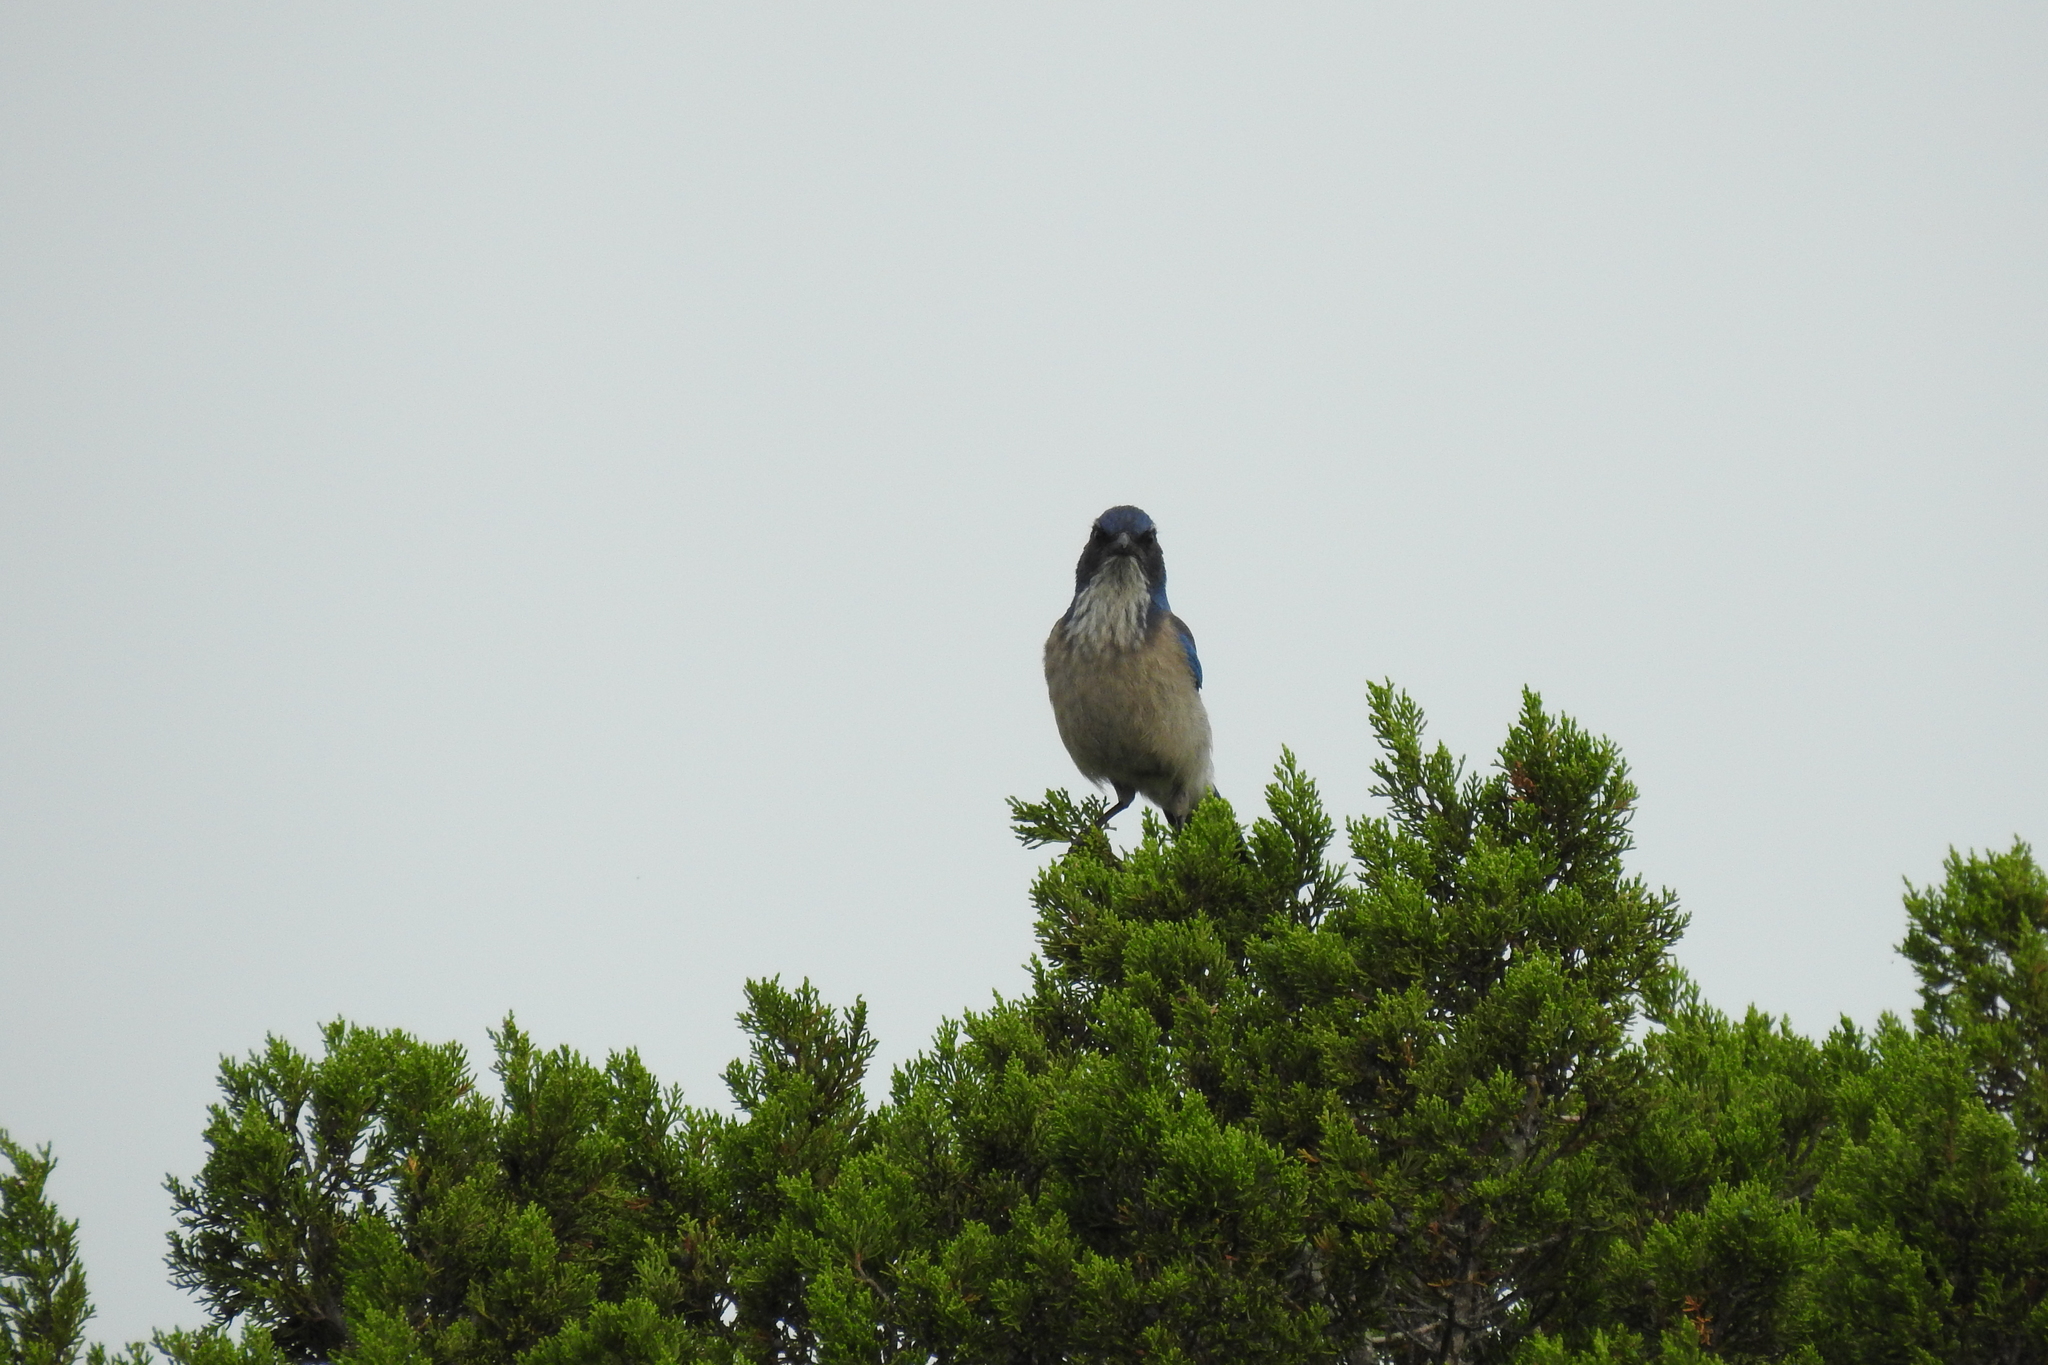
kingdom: Animalia
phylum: Chordata
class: Aves
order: Passeriformes
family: Corvidae
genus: Aphelocoma
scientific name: Aphelocoma woodhouseii
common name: Woodhouse's scrub-jay
